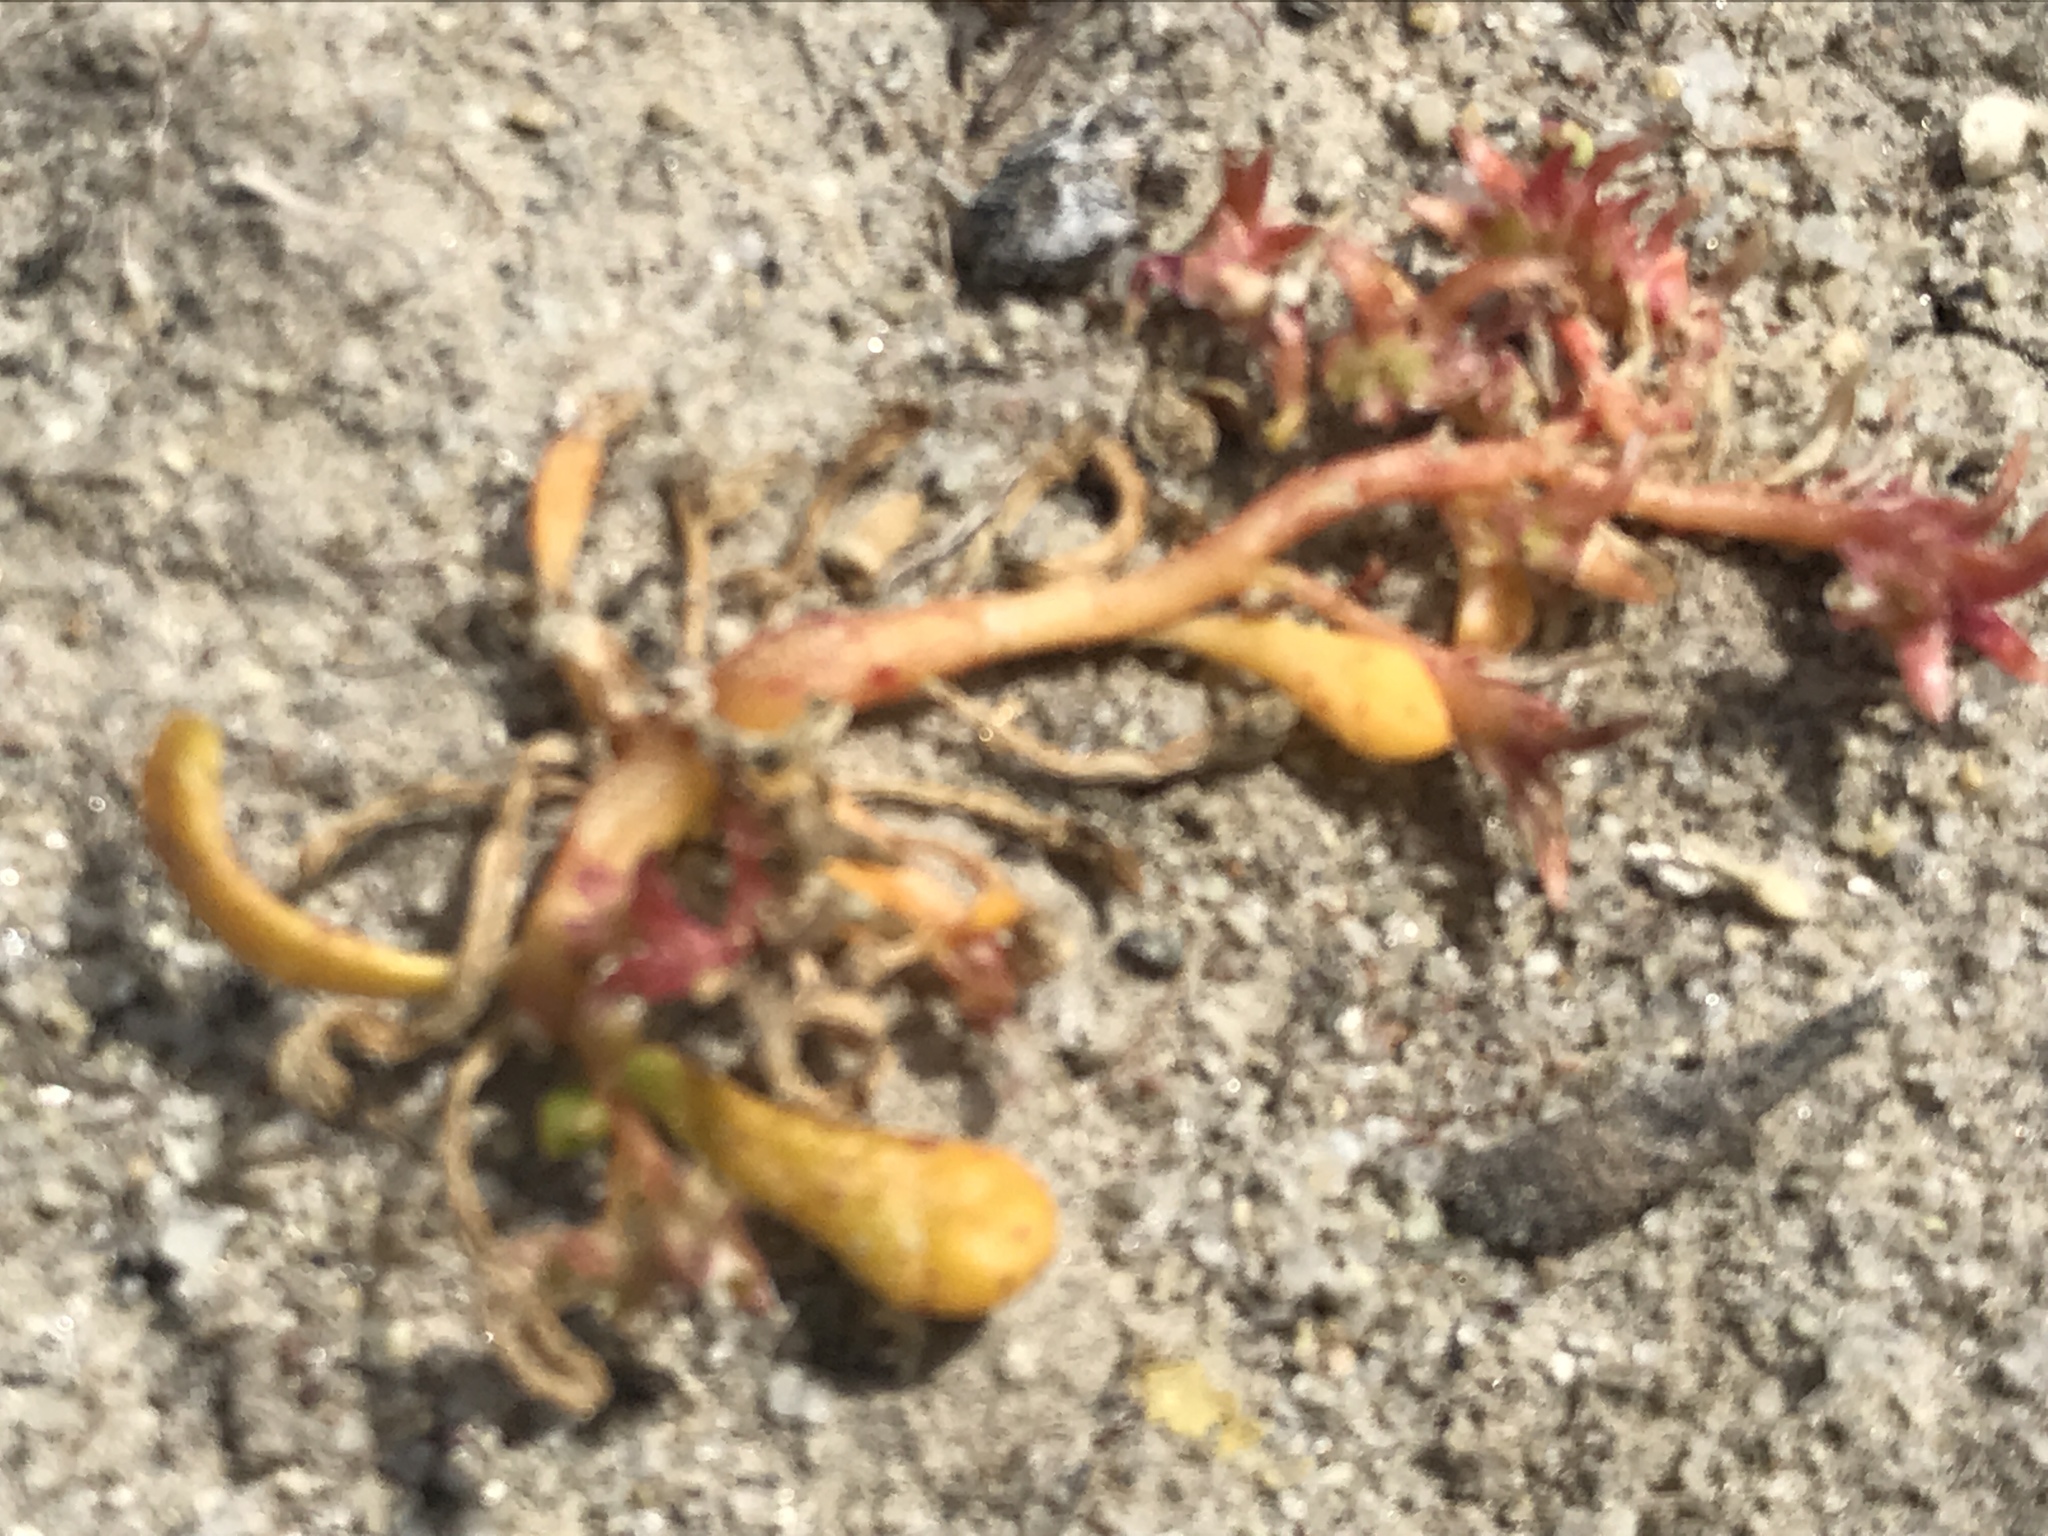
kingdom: Plantae
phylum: Tracheophyta
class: Magnoliopsida
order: Caryophyllales
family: Montiaceae
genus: Calyptridium
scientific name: Calyptridium monandrum
